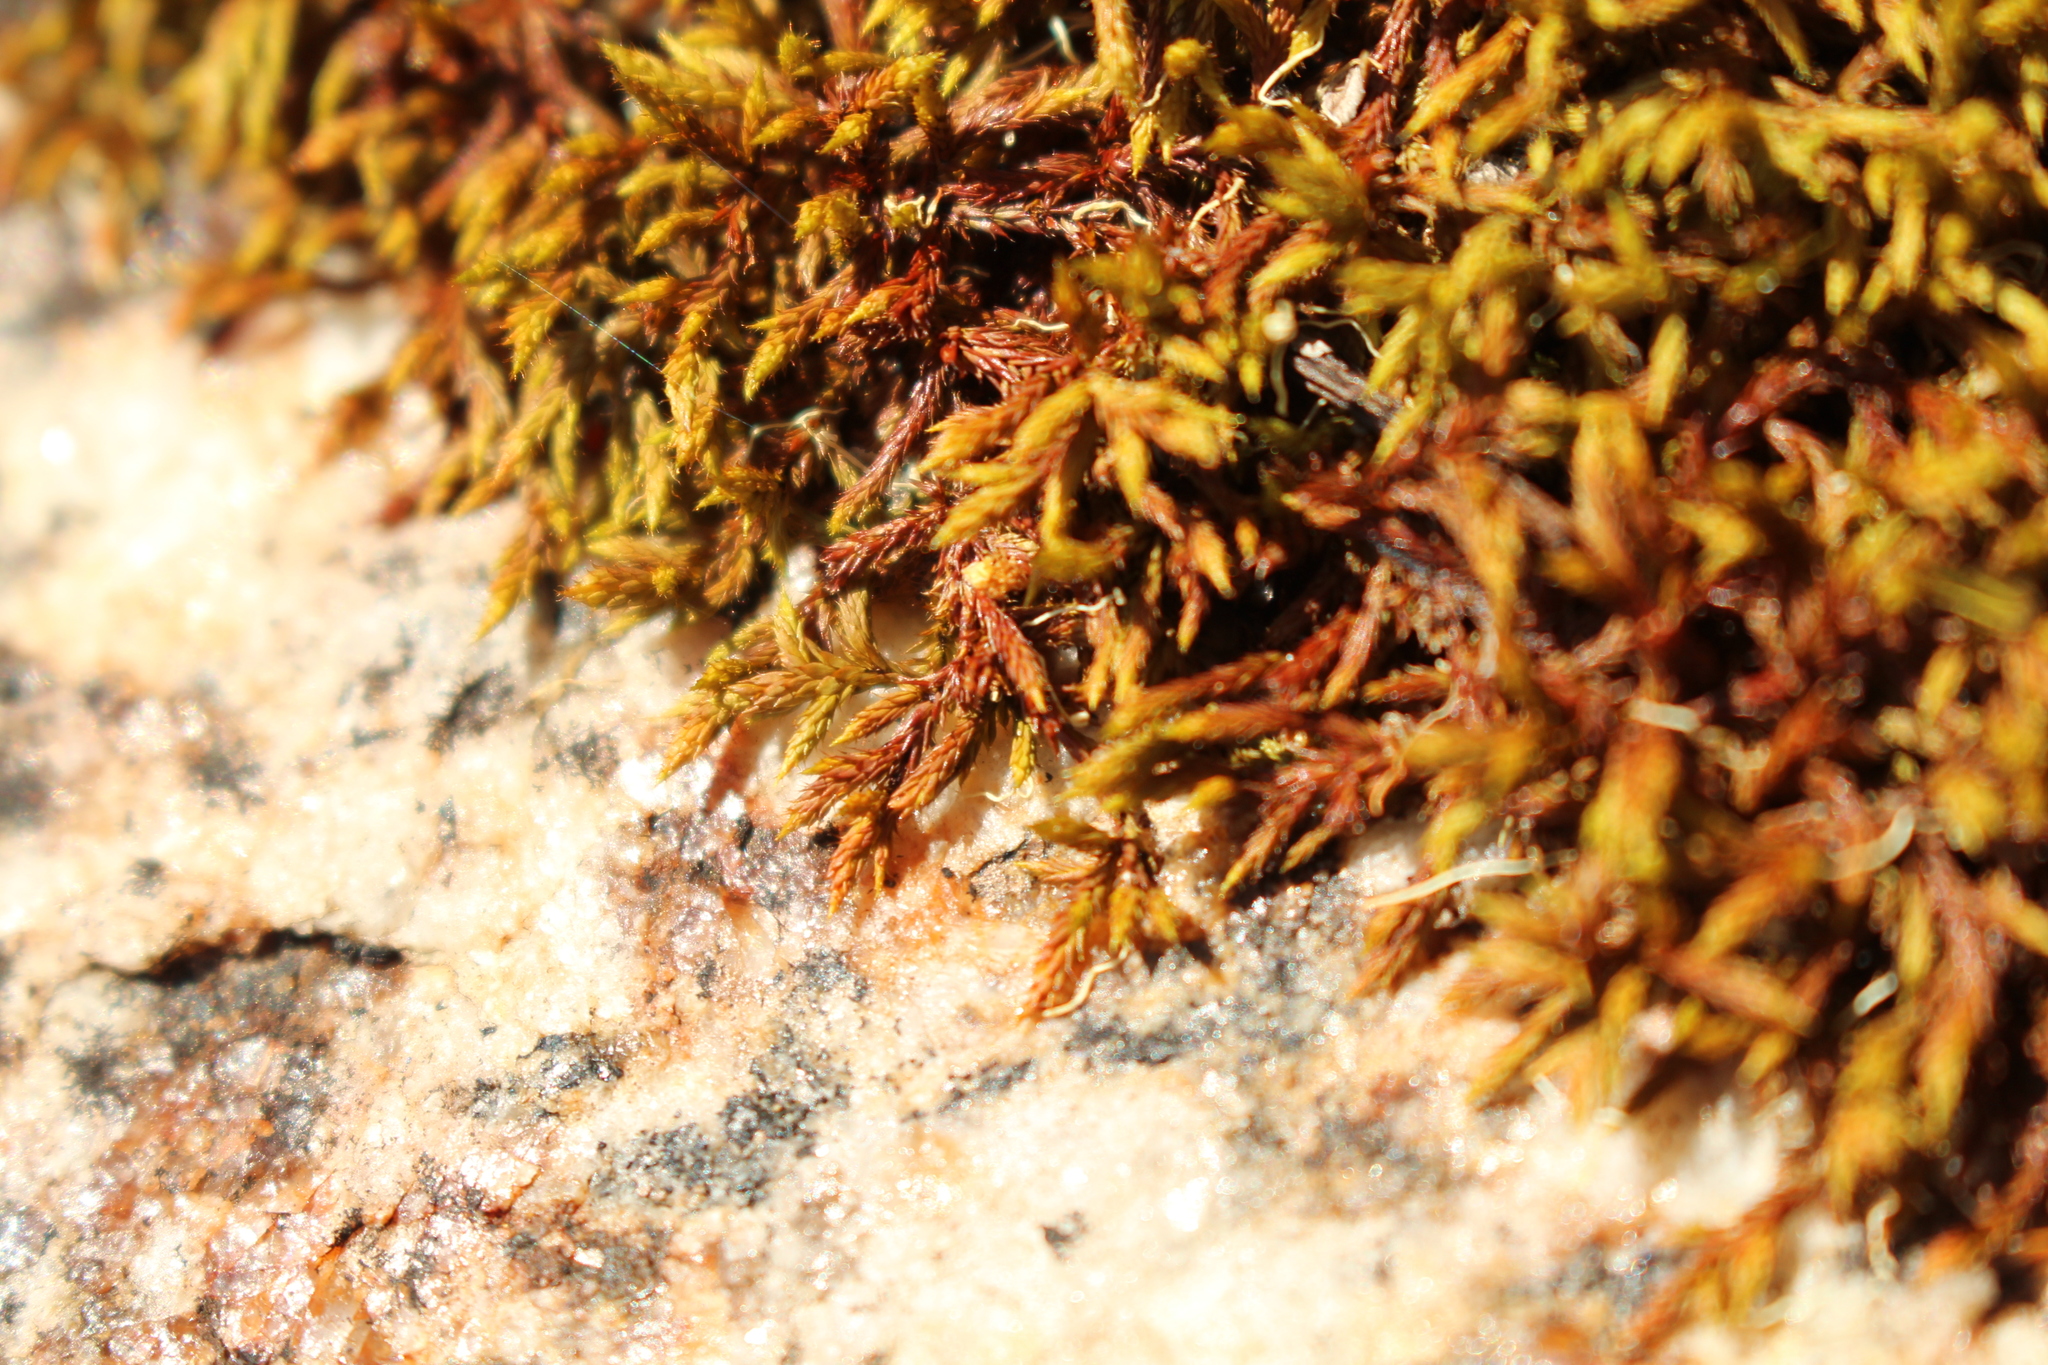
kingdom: Plantae
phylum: Bryophyta
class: Bryopsida
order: Hedwigiales
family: Hedwigiaceae
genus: Rhacocarpus
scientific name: Rhacocarpus purpurascens
